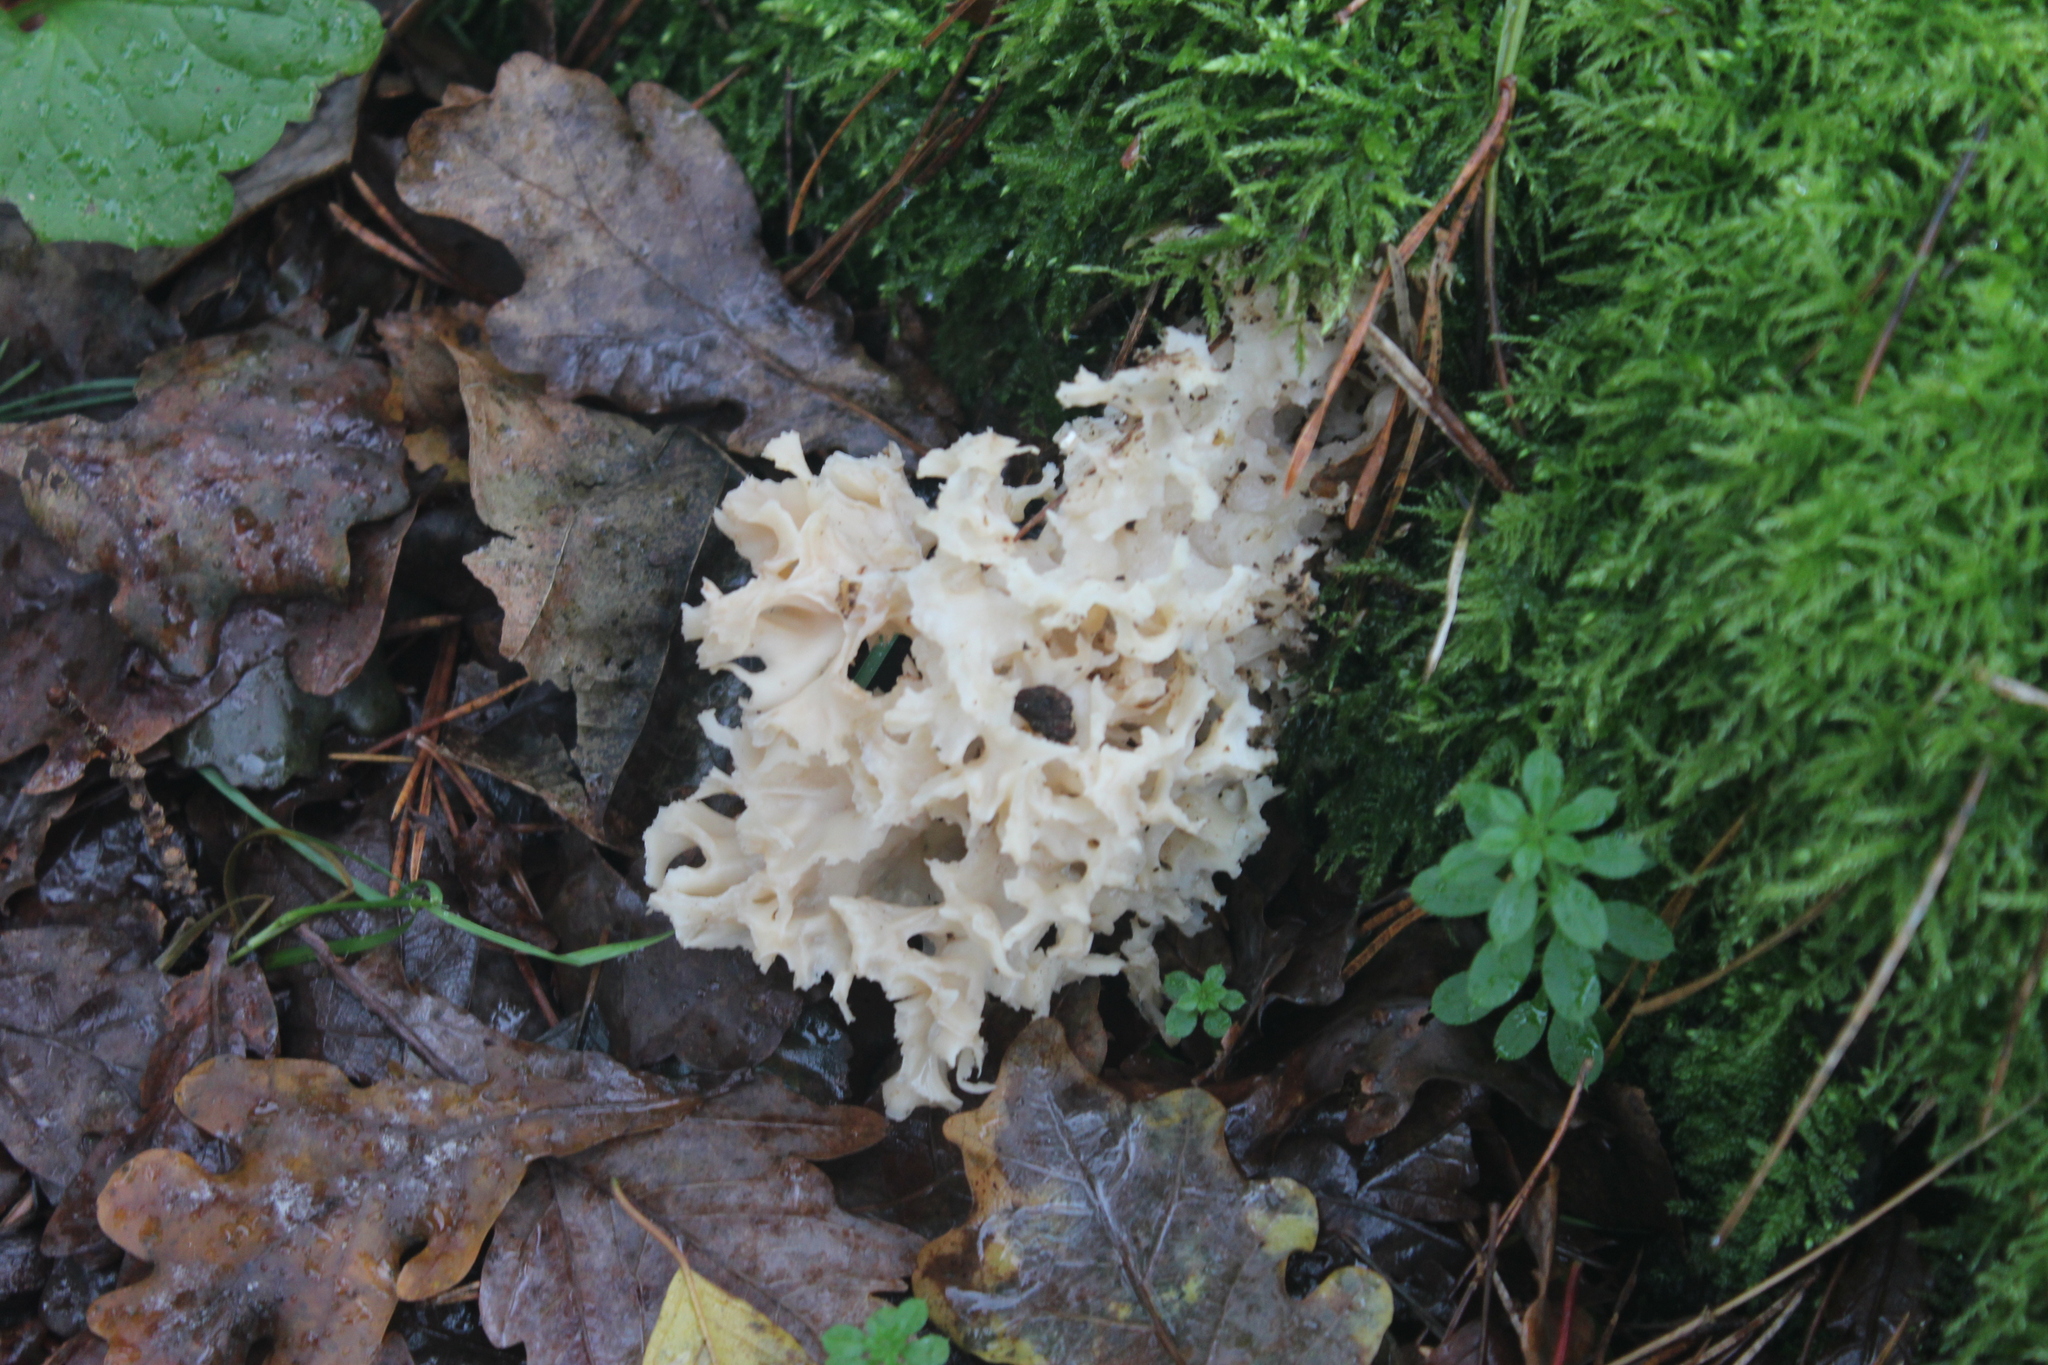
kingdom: Fungi
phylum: Basidiomycota
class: Agaricomycetes
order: Polyporales
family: Sparassidaceae
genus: Sparassis
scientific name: Sparassis crispa
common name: Brain fungus
